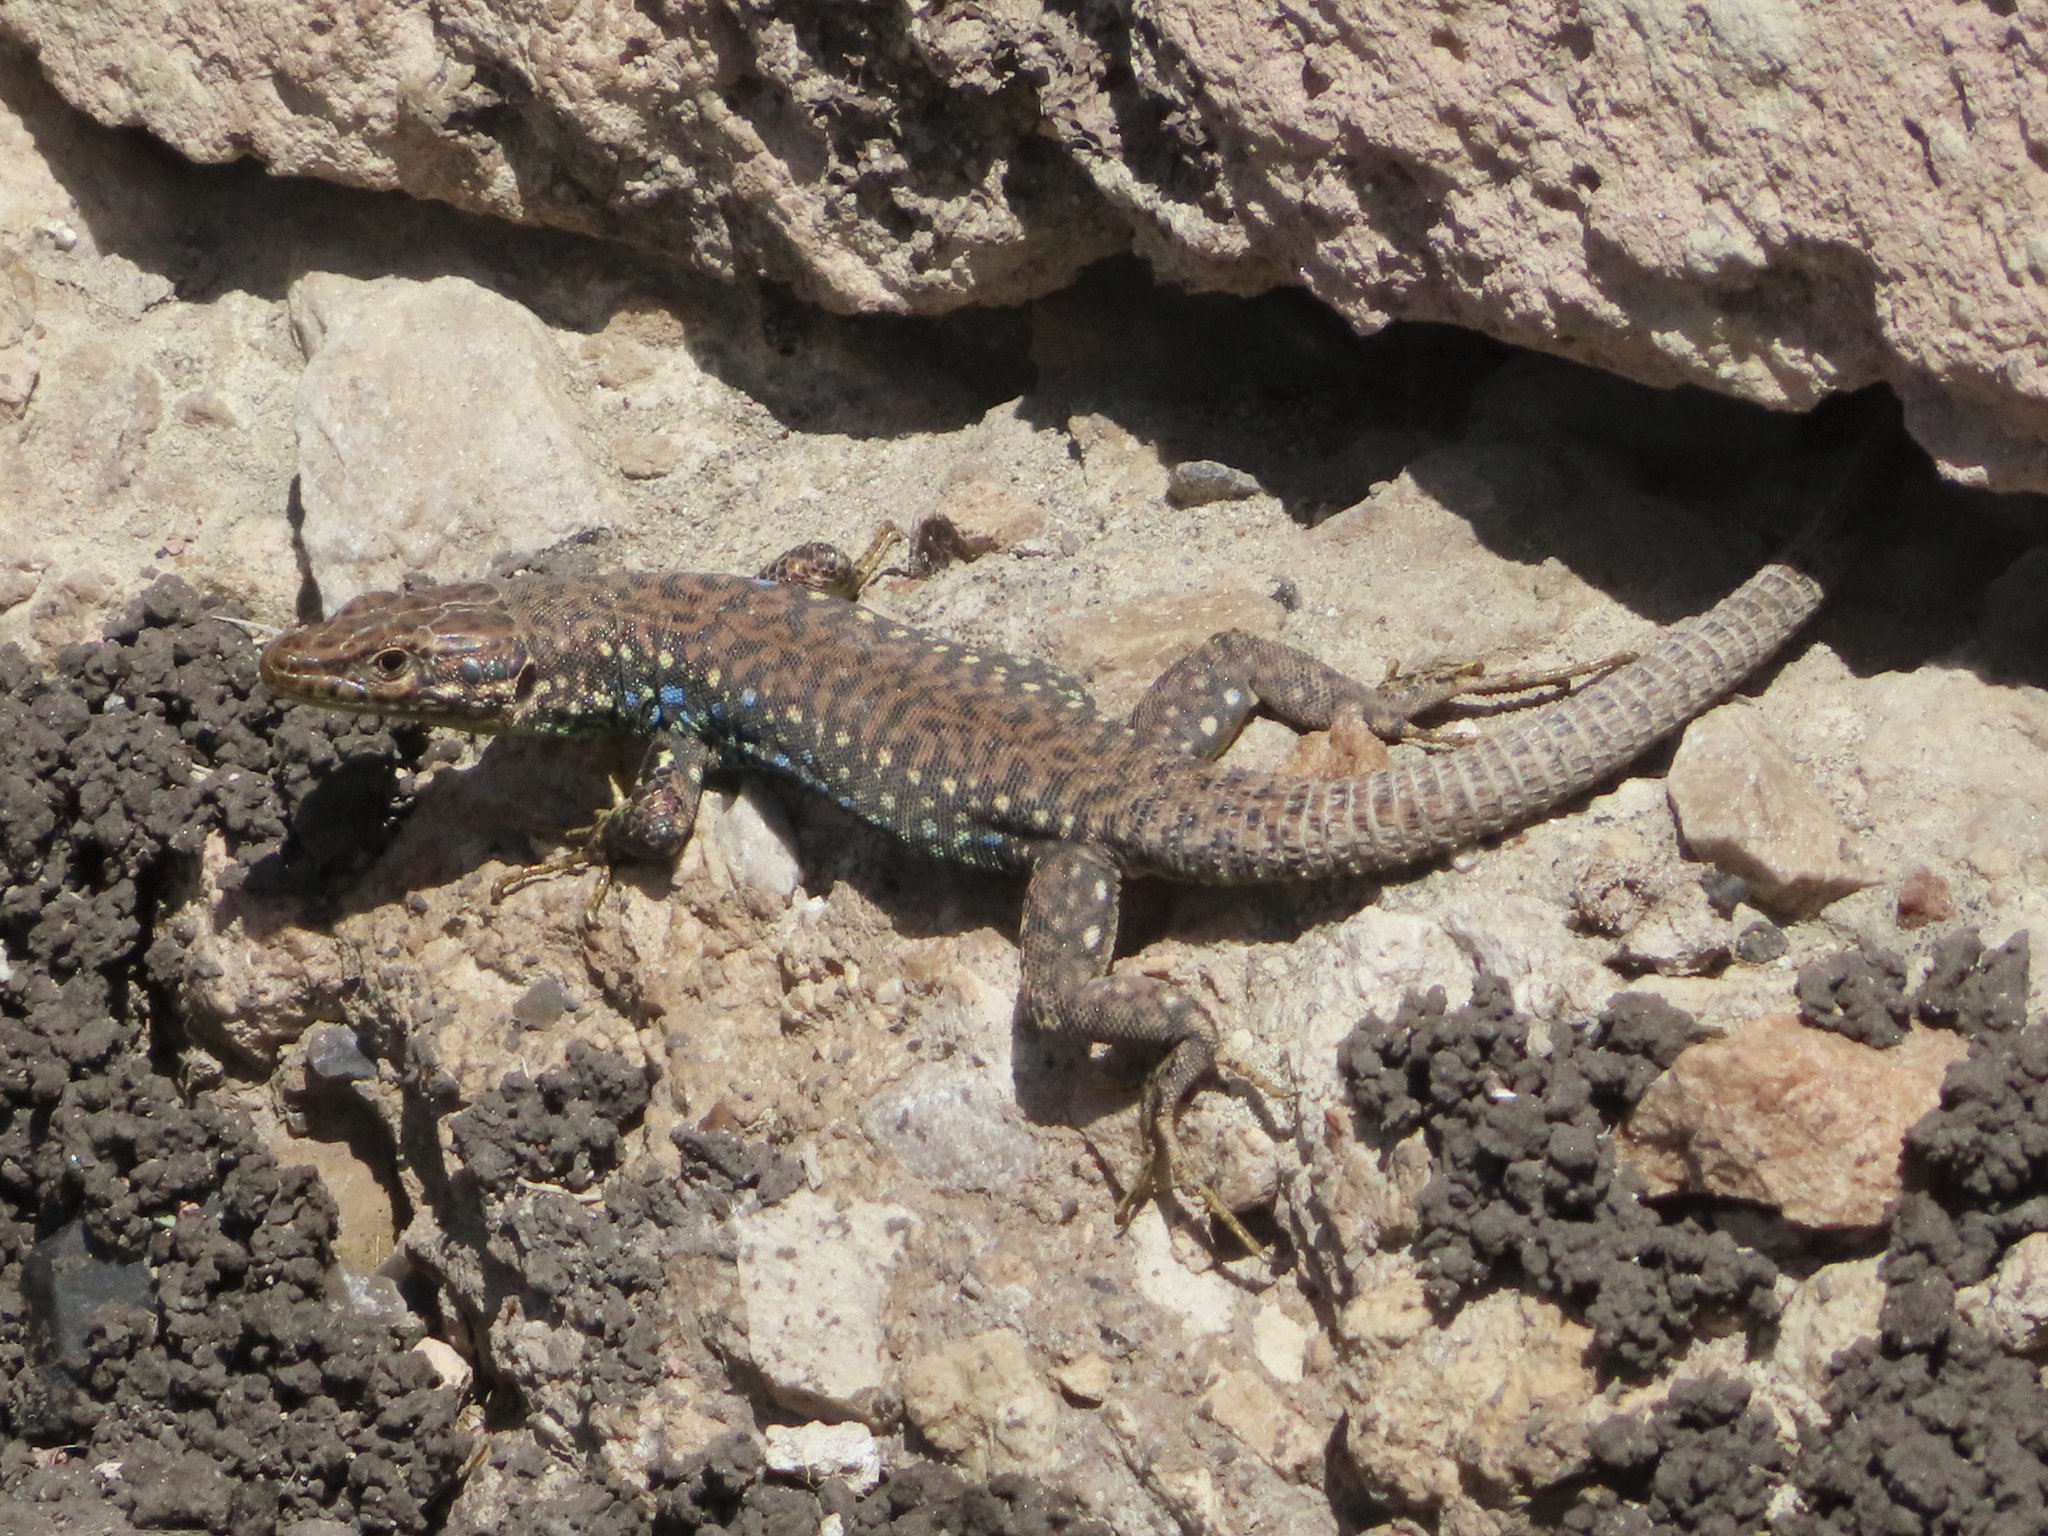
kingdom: Animalia
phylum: Chordata
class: Squamata
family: Lacertidae
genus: Darevskia
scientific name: Darevskia
